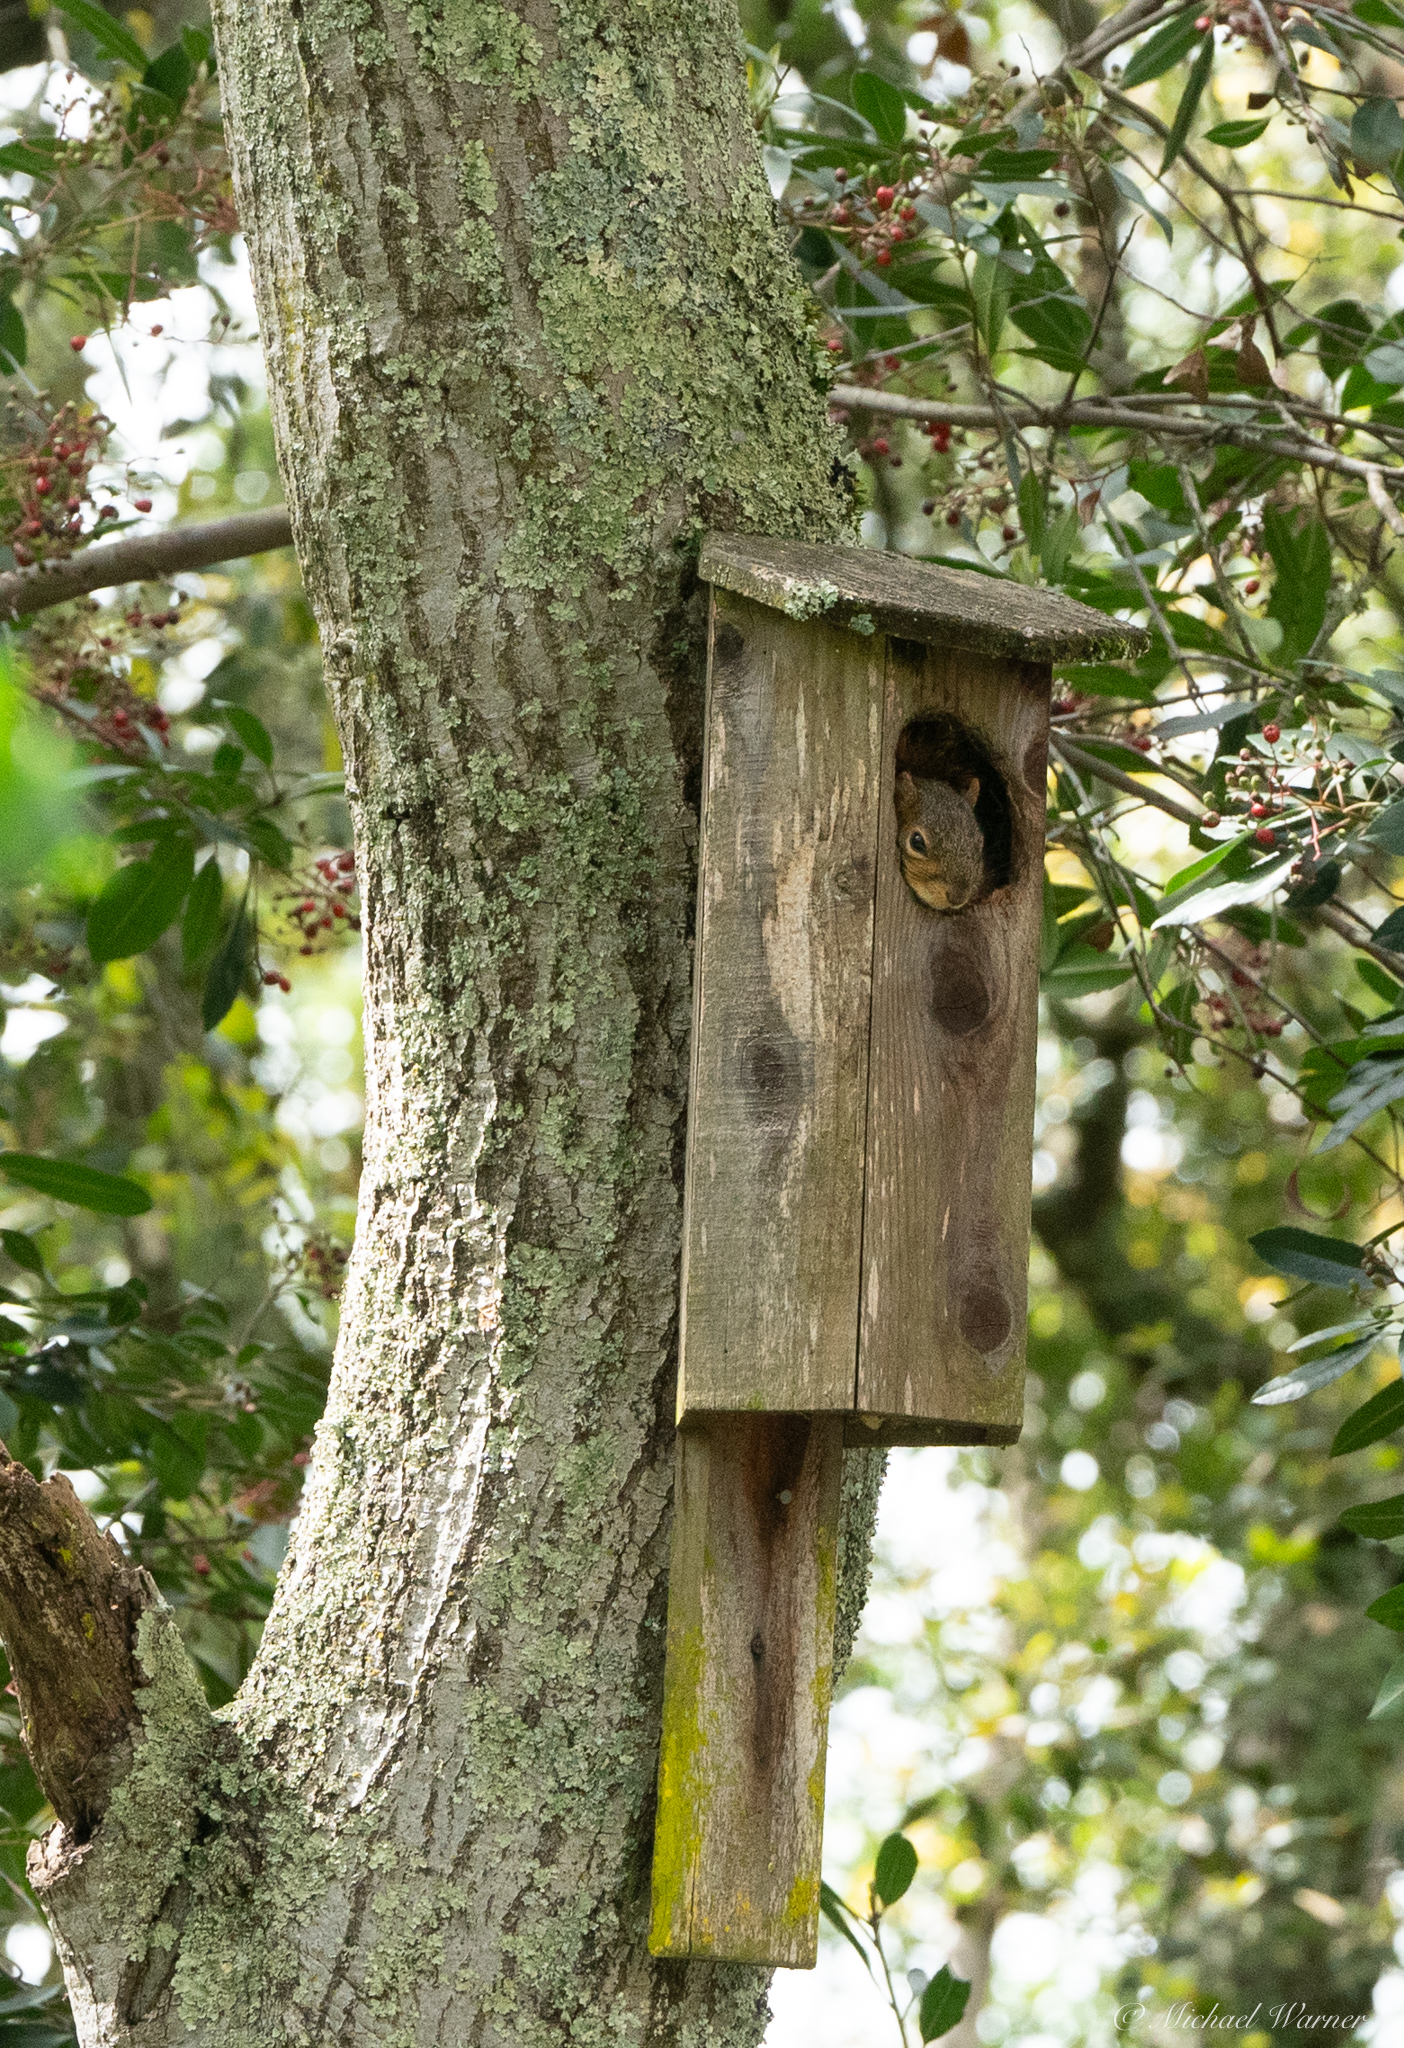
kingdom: Animalia
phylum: Chordata
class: Mammalia
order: Rodentia
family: Sciuridae
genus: Sciurus
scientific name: Sciurus niger
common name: Fox squirrel
